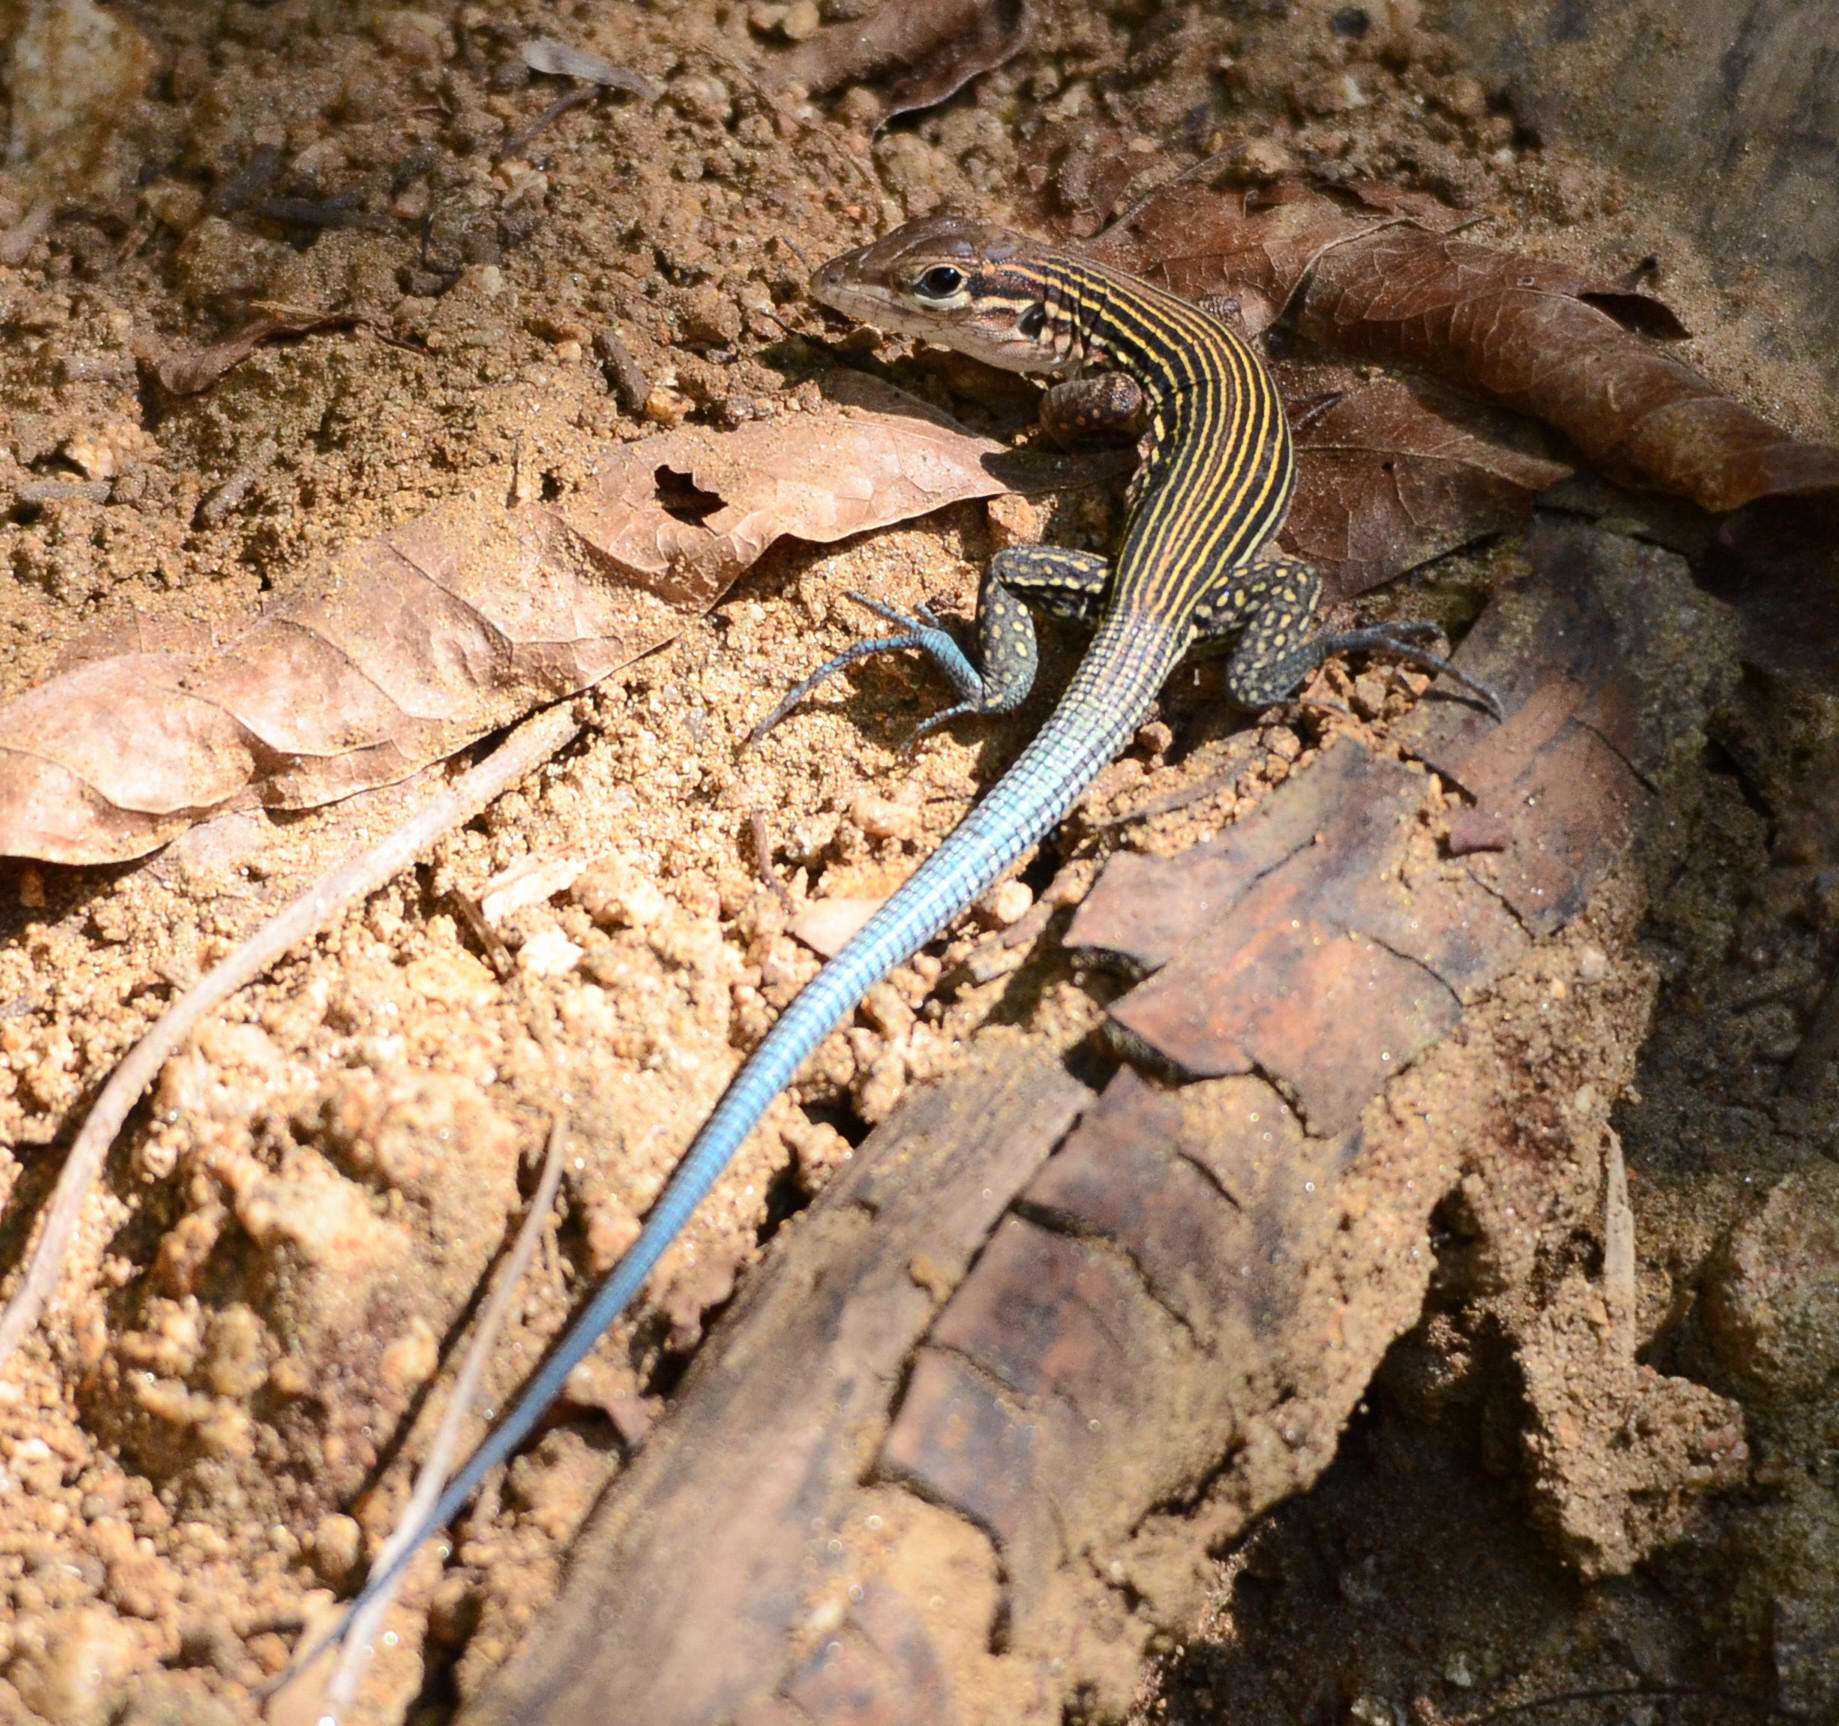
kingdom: Animalia
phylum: Chordata
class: Squamata
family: Teiidae
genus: Aspidoscelis
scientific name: Aspidoscelis lineattissimus
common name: Many-lined whiptail
